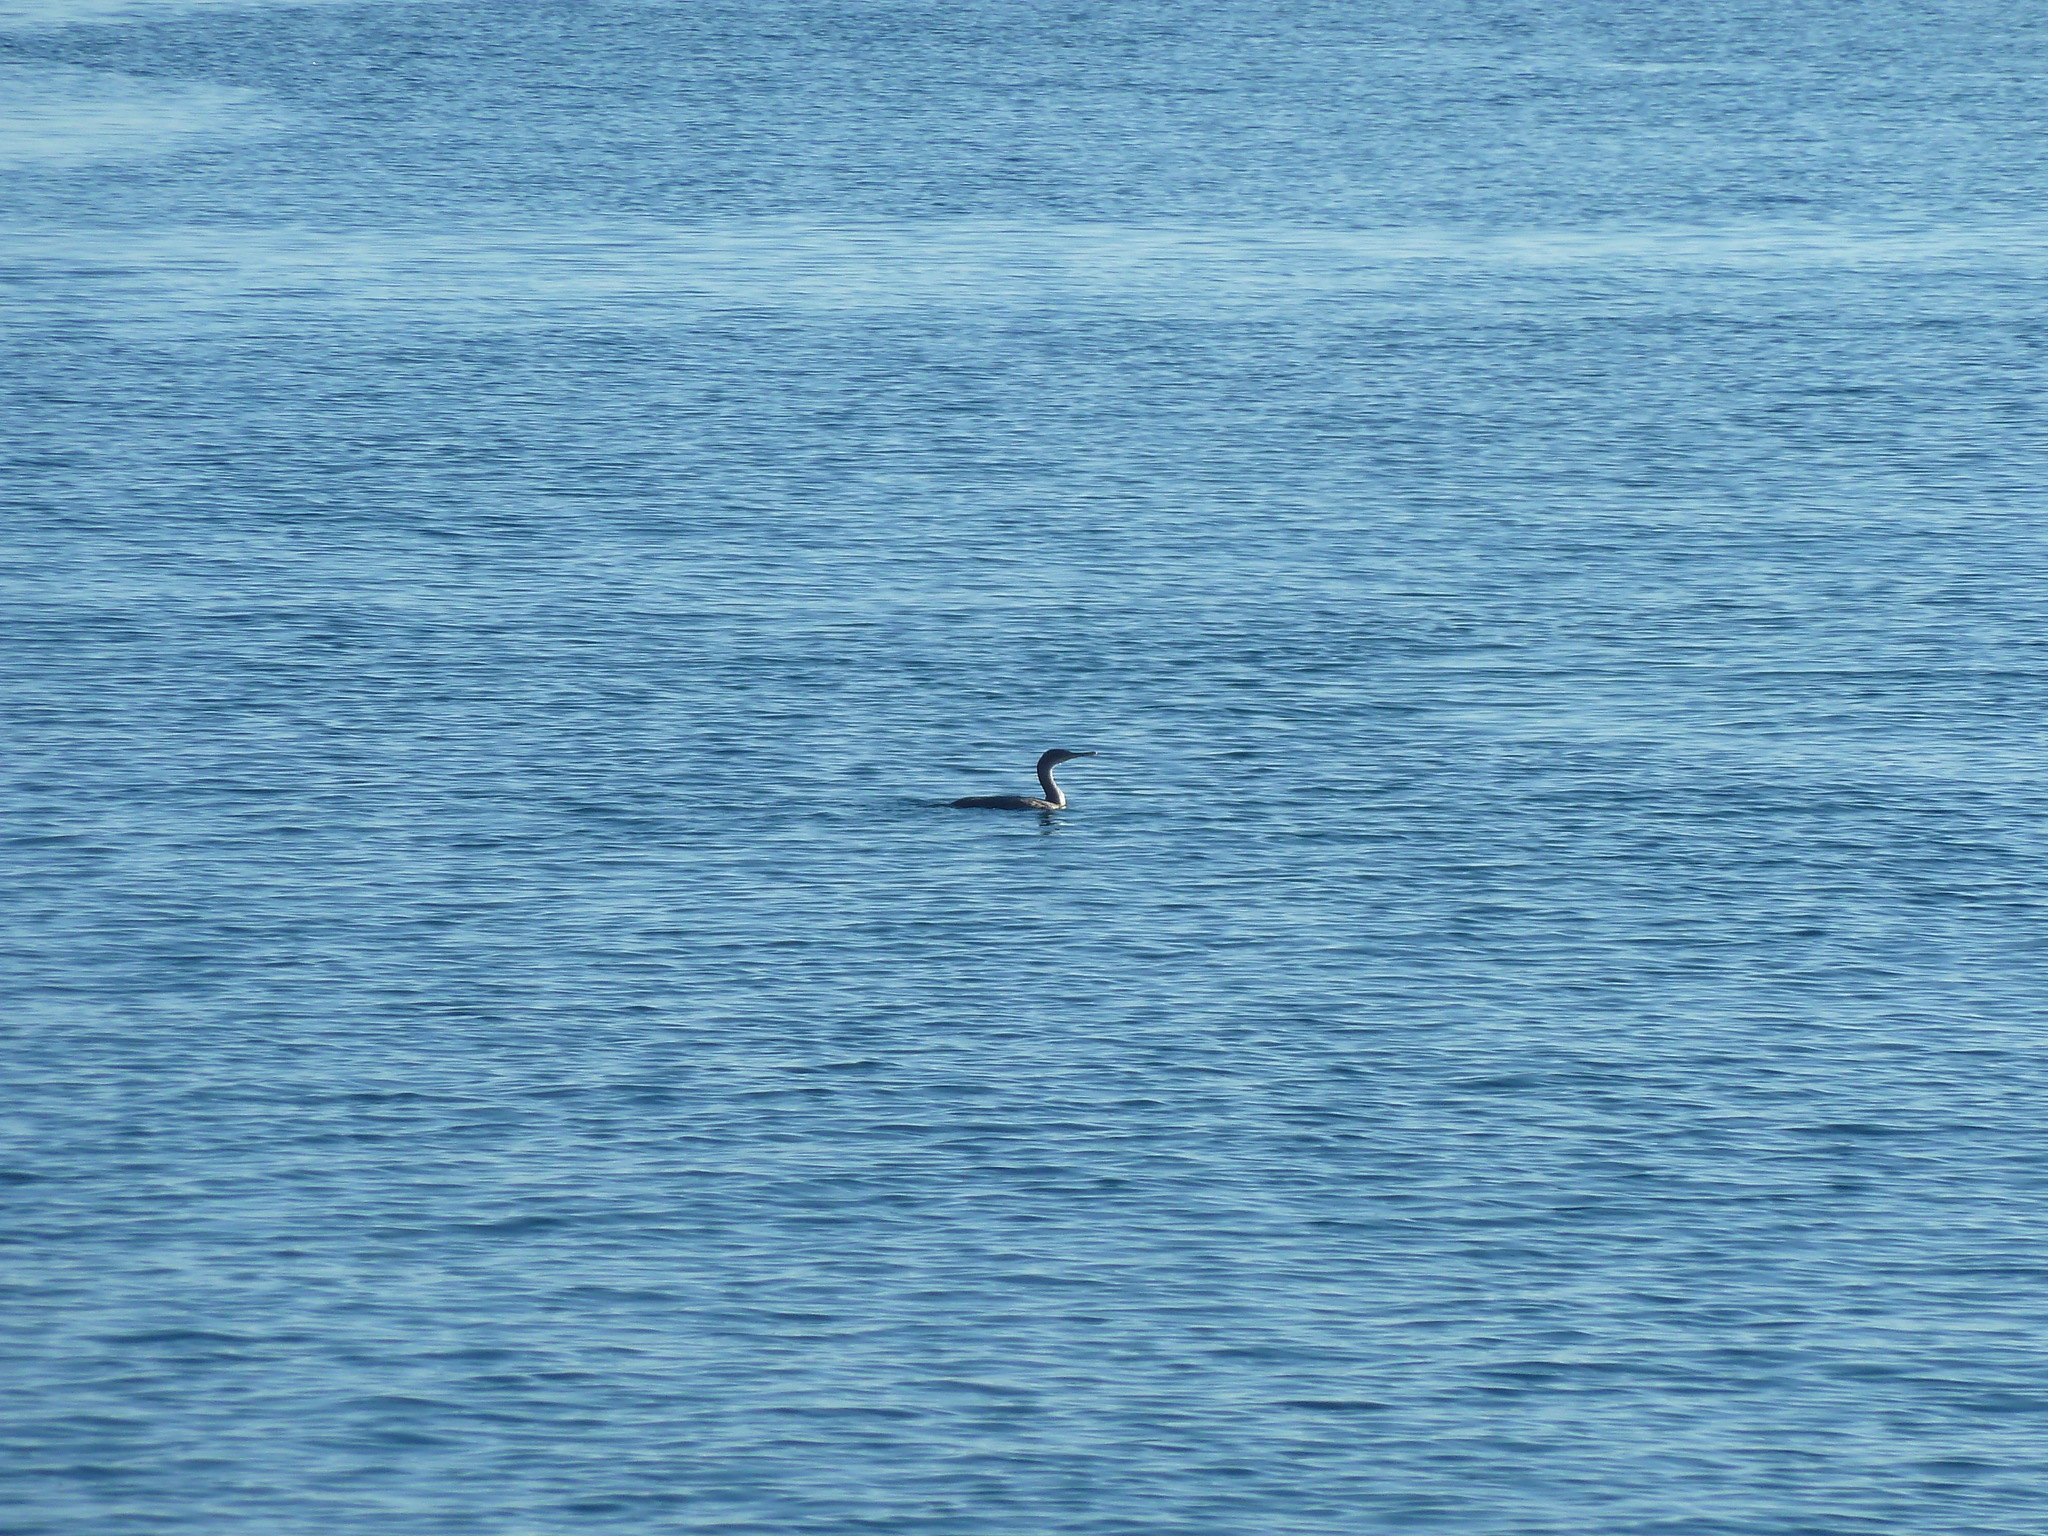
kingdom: Animalia
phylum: Chordata
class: Aves
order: Suliformes
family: Phalacrocoracidae
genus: Phalacrocorax
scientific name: Phalacrocorax aristotelis
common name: European shag
